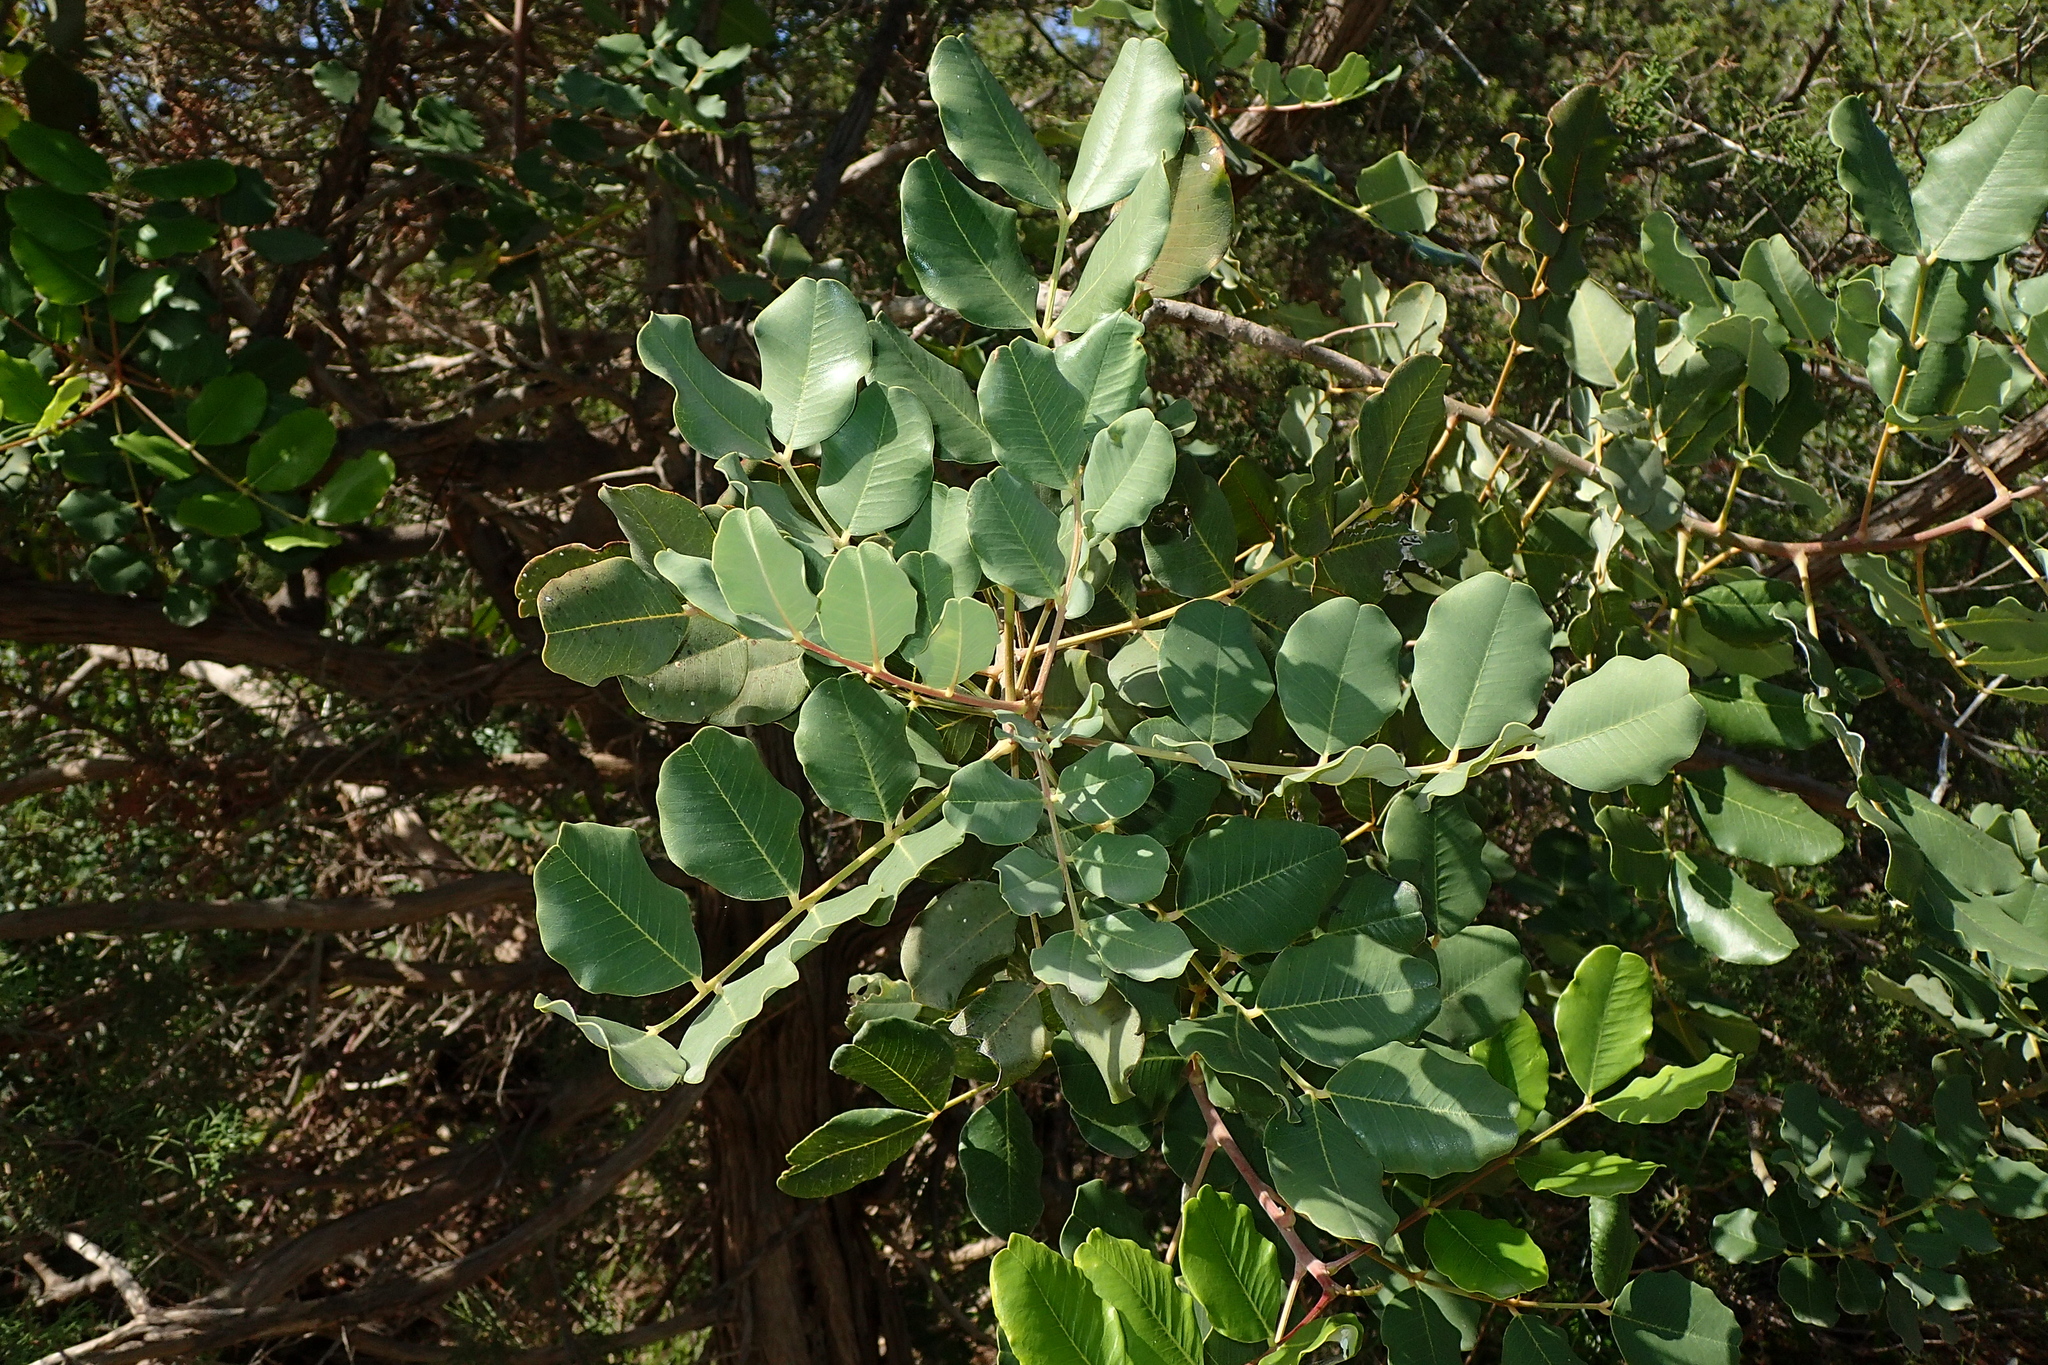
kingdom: Plantae
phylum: Tracheophyta
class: Magnoliopsida
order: Fabales
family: Fabaceae
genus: Ceratonia
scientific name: Ceratonia siliqua
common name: Carob
